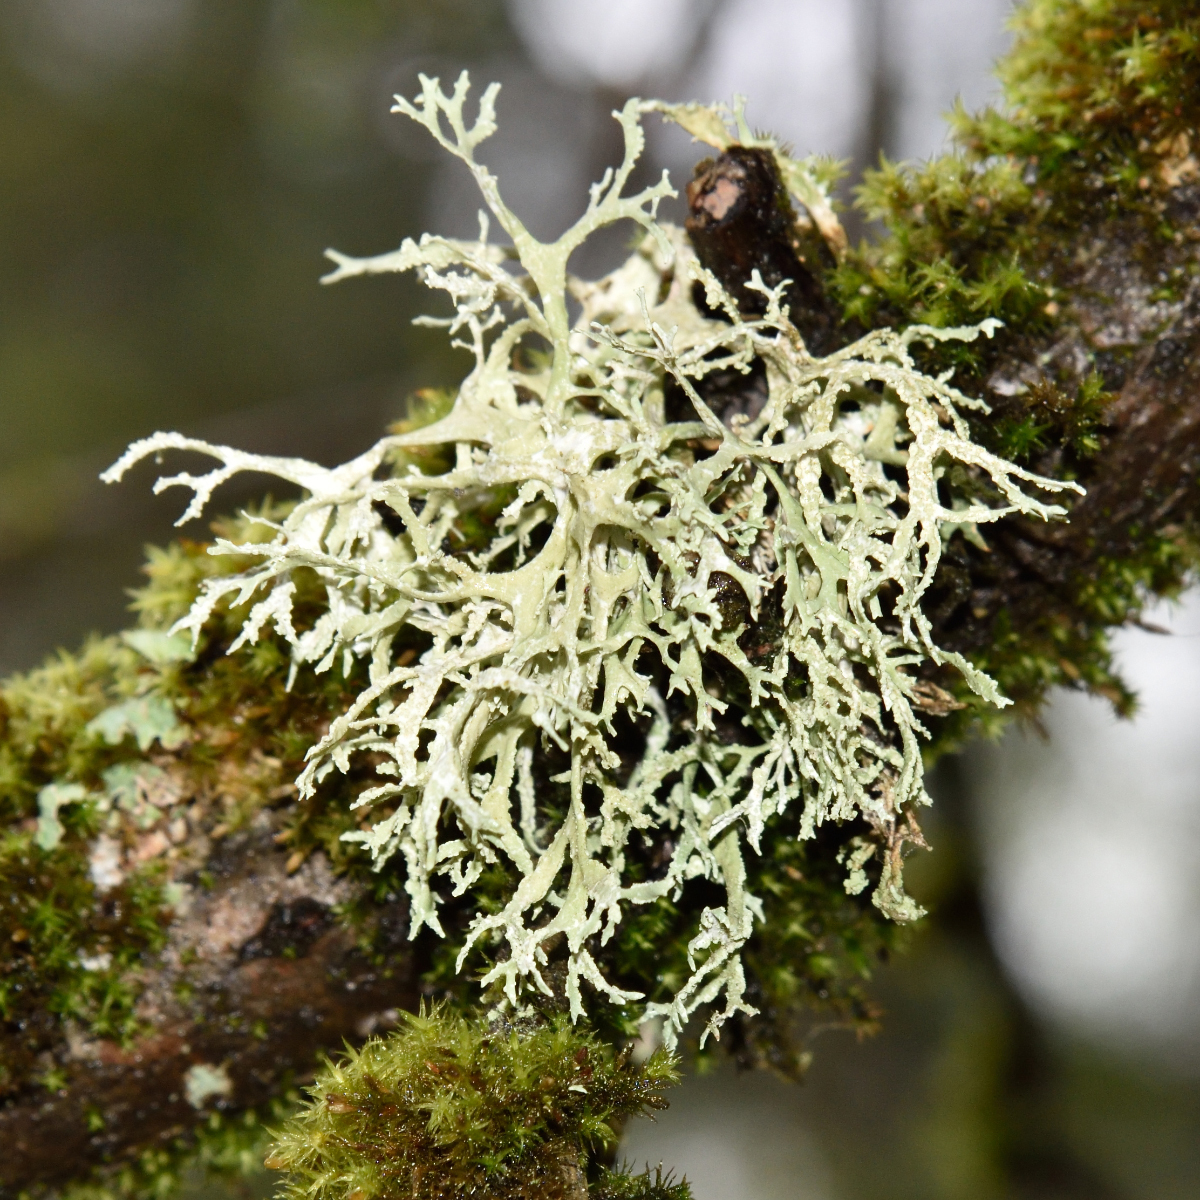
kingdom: Fungi
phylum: Ascomycota
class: Lecanoromycetes
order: Lecanorales
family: Parmeliaceae
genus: Evernia
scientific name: Evernia prunastri
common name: Oak moss
